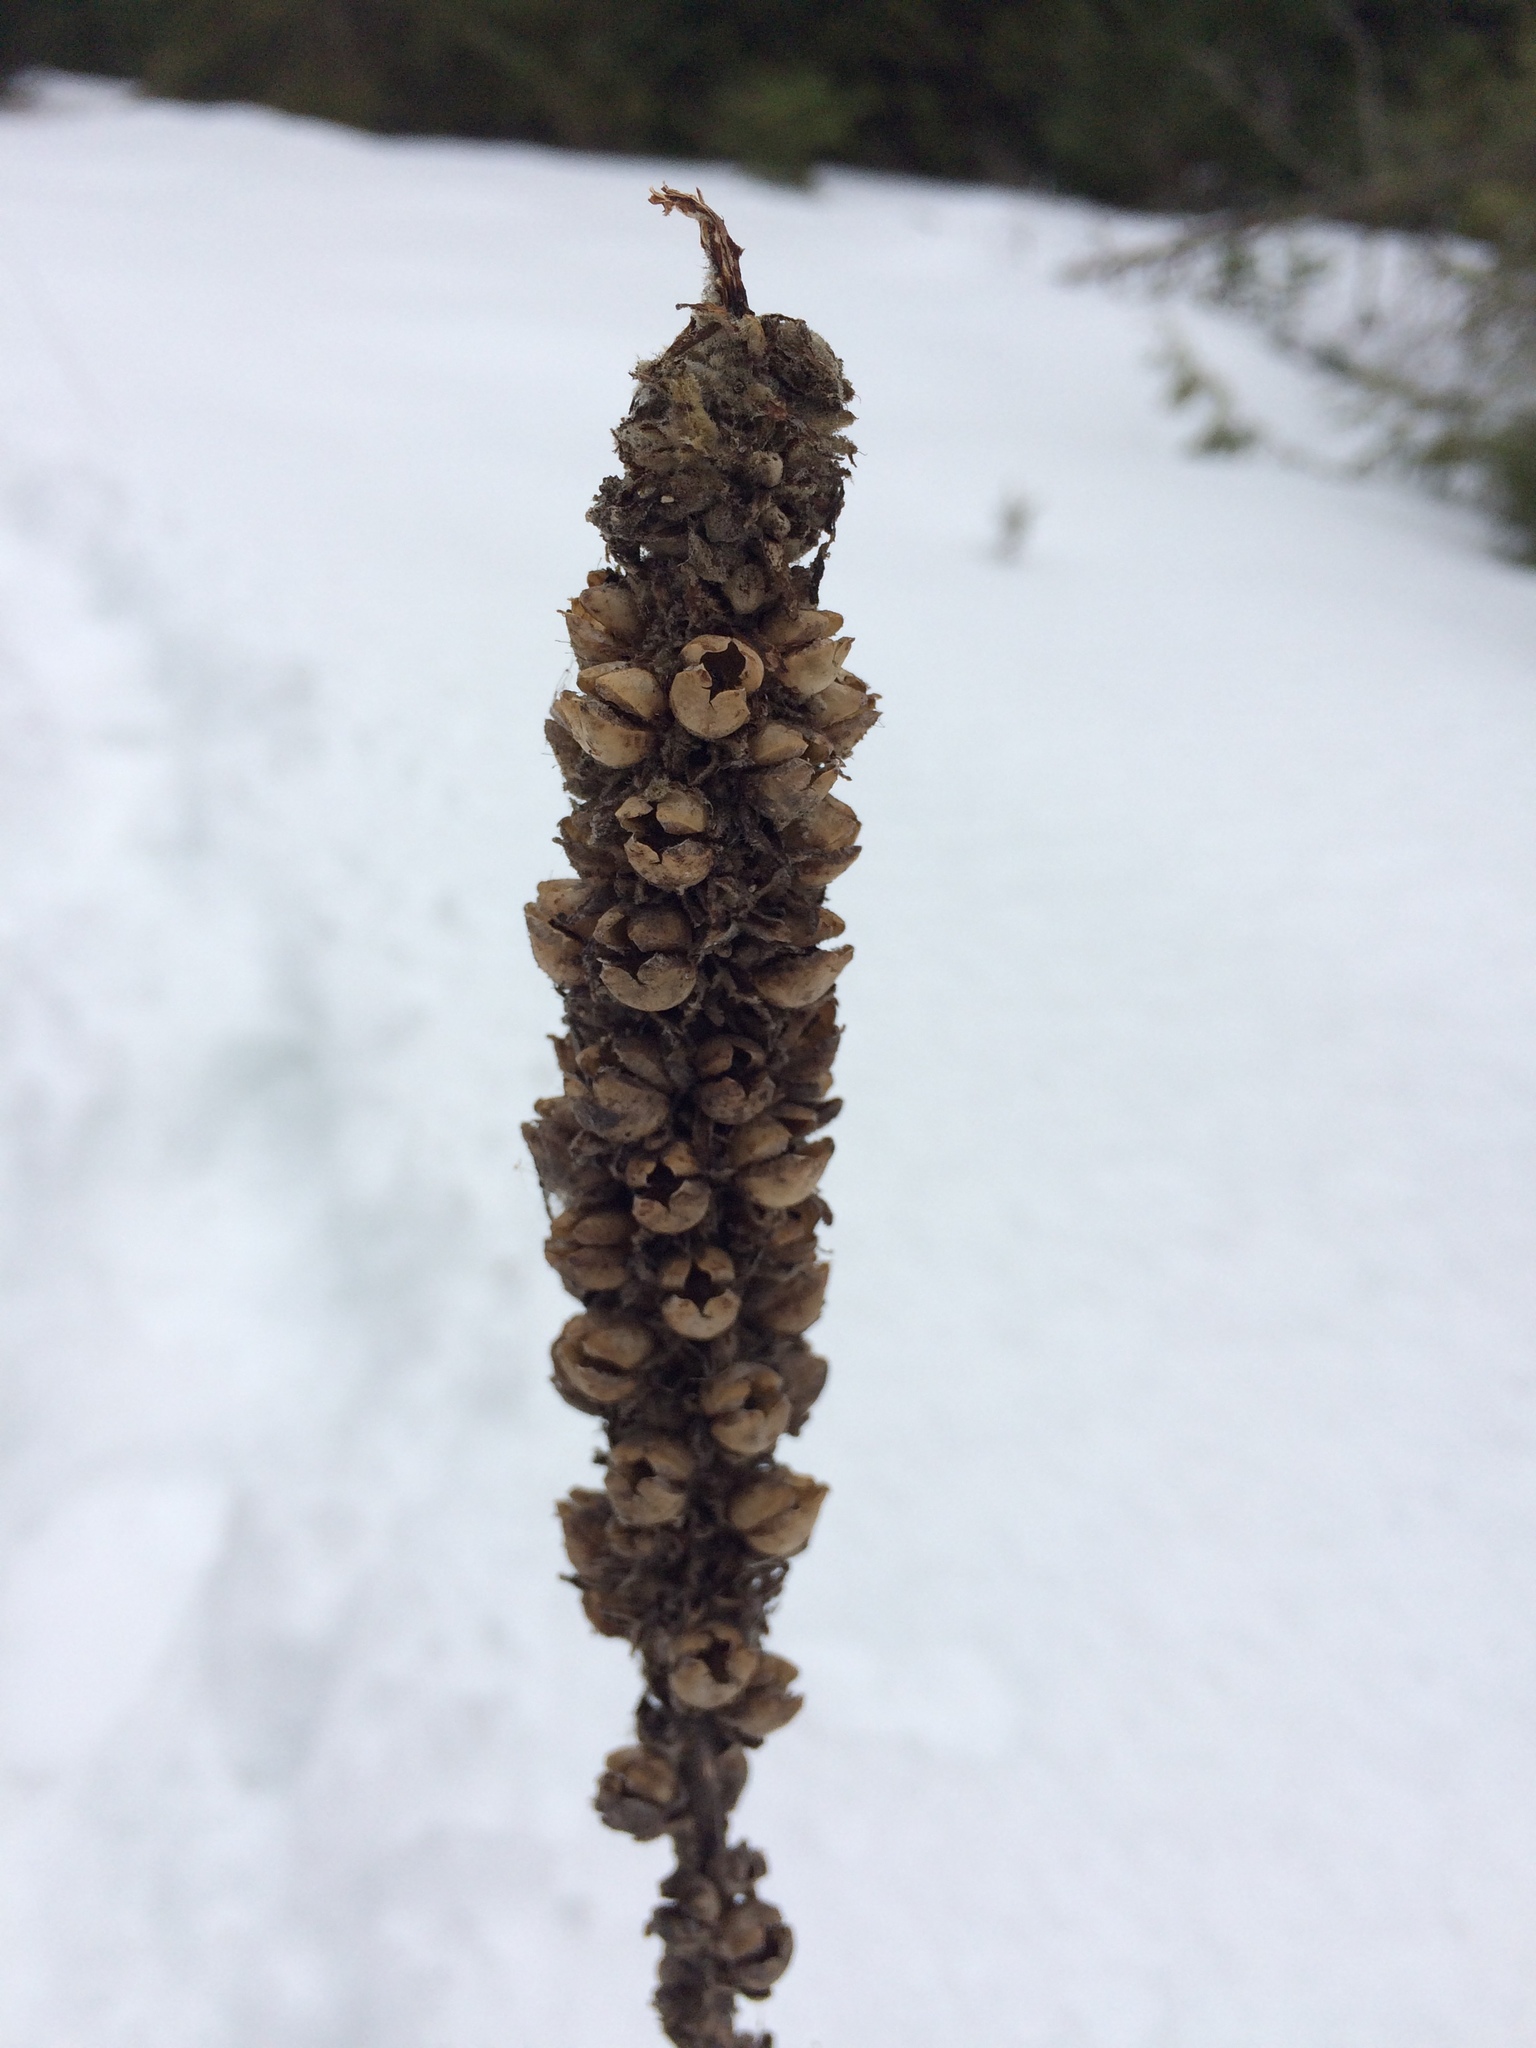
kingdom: Plantae
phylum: Tracheophyta
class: Magnoliopsida
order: Lamiales
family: Scrophulariaceae
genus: Verbascum
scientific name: Verbascum thapsus
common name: Common mullein
